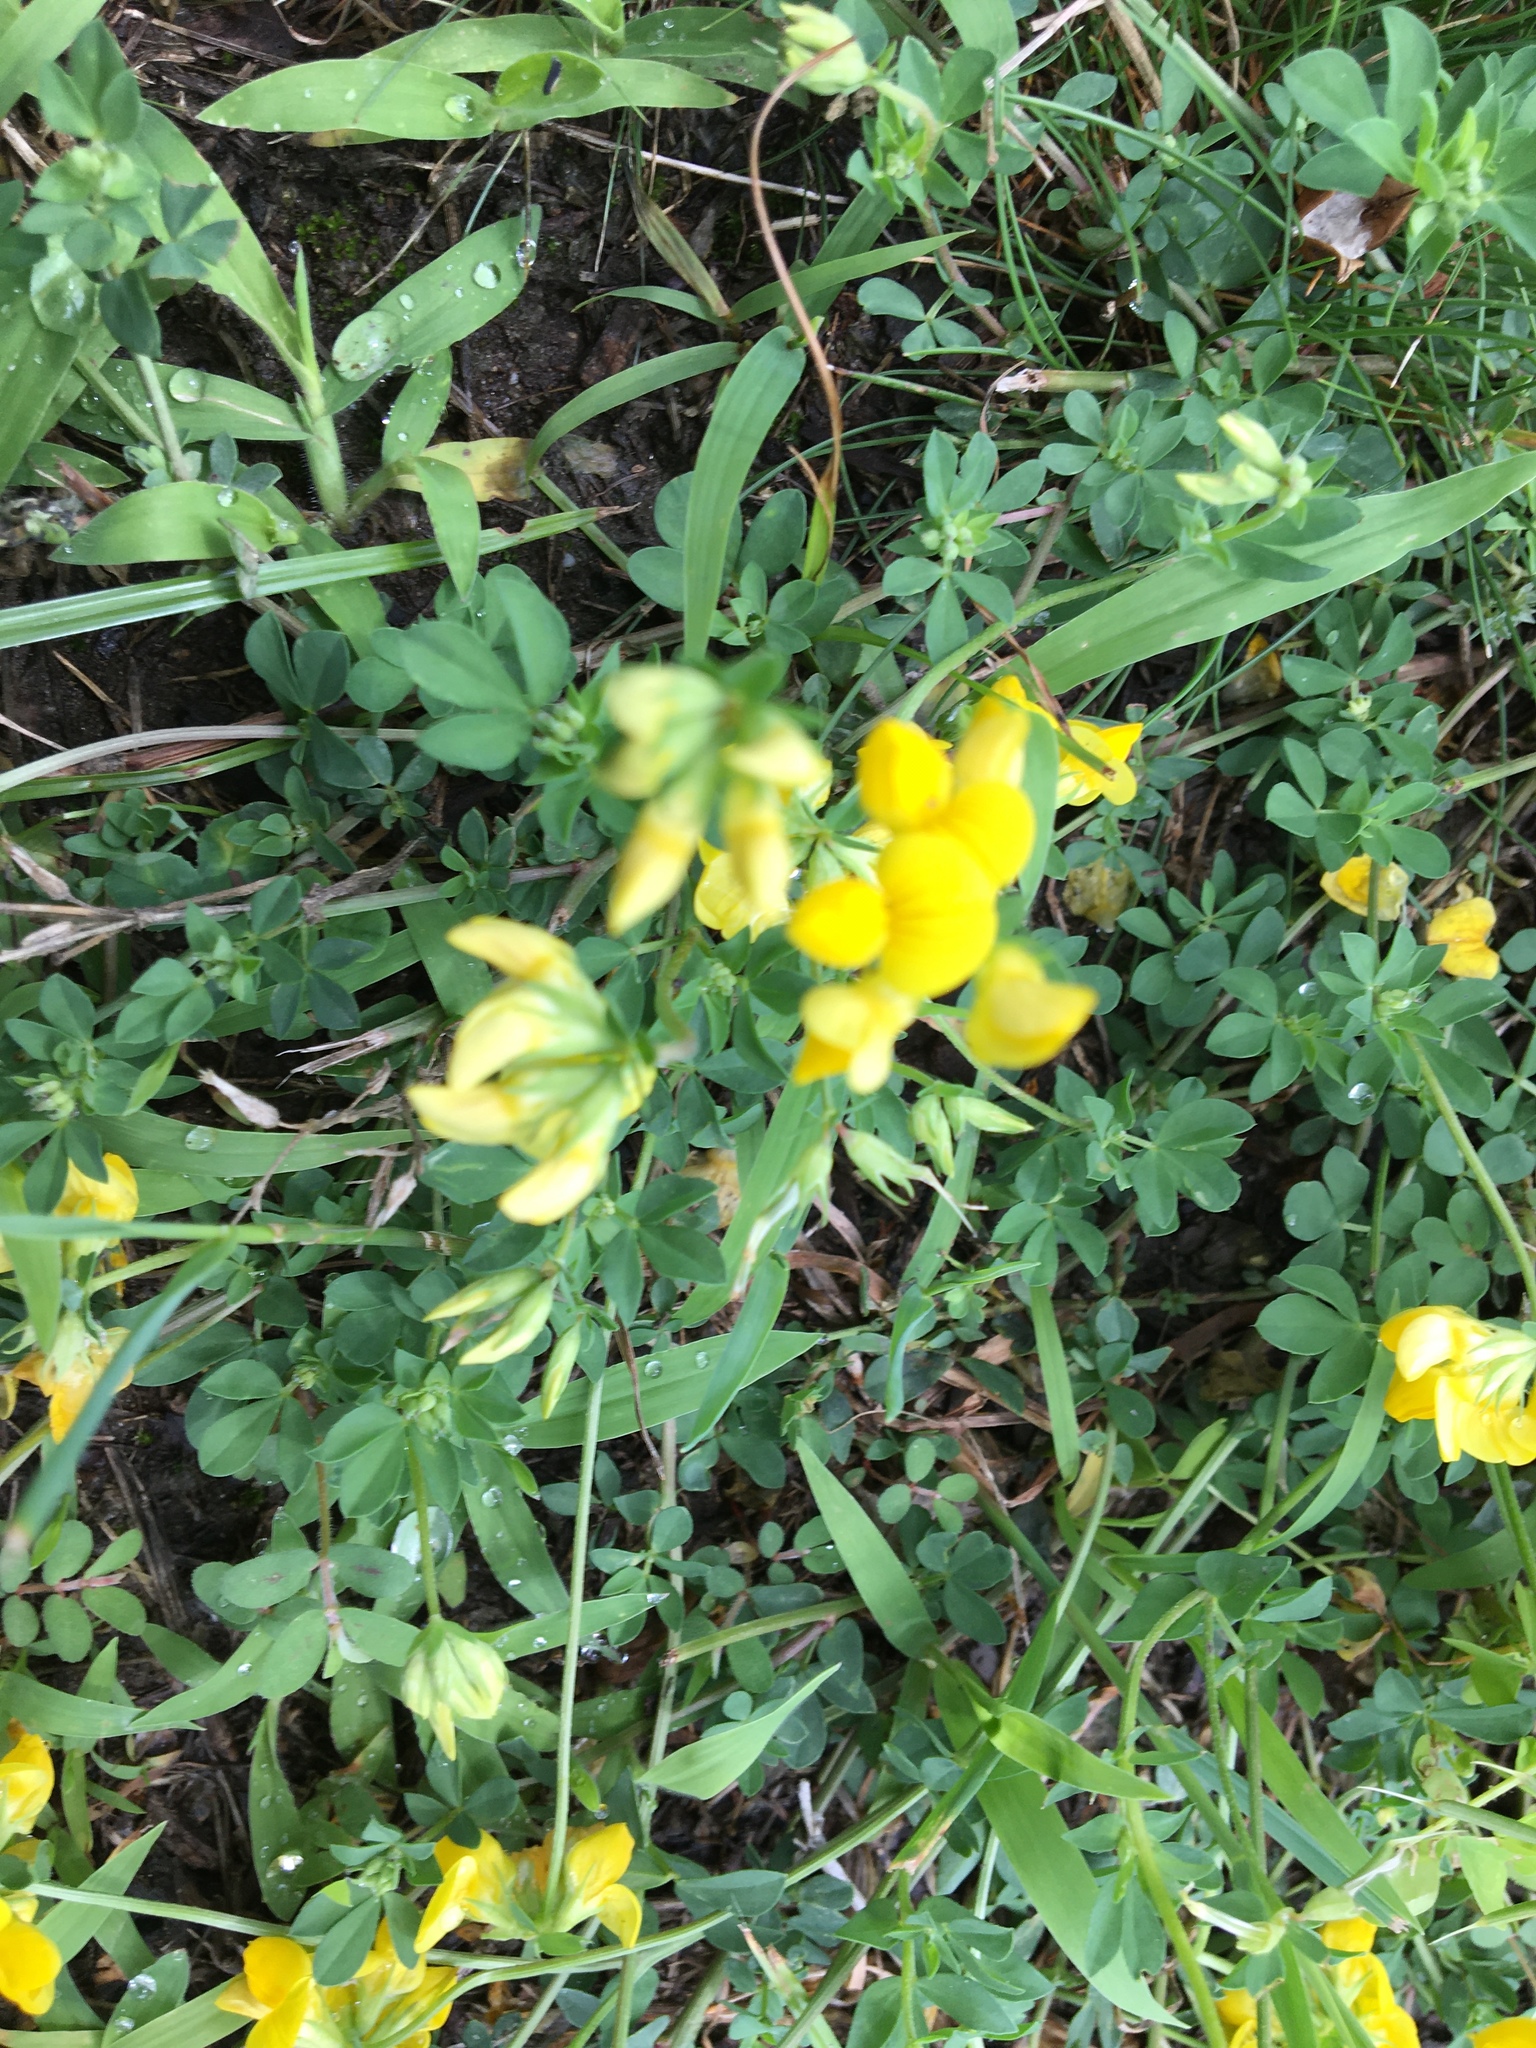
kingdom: Plantae
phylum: Tracheophyta
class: Magnoliopsida
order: Fabales
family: Fabaceae
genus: Lotus
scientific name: Lotus corniculatus
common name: Common bird's-foot-trefoil
